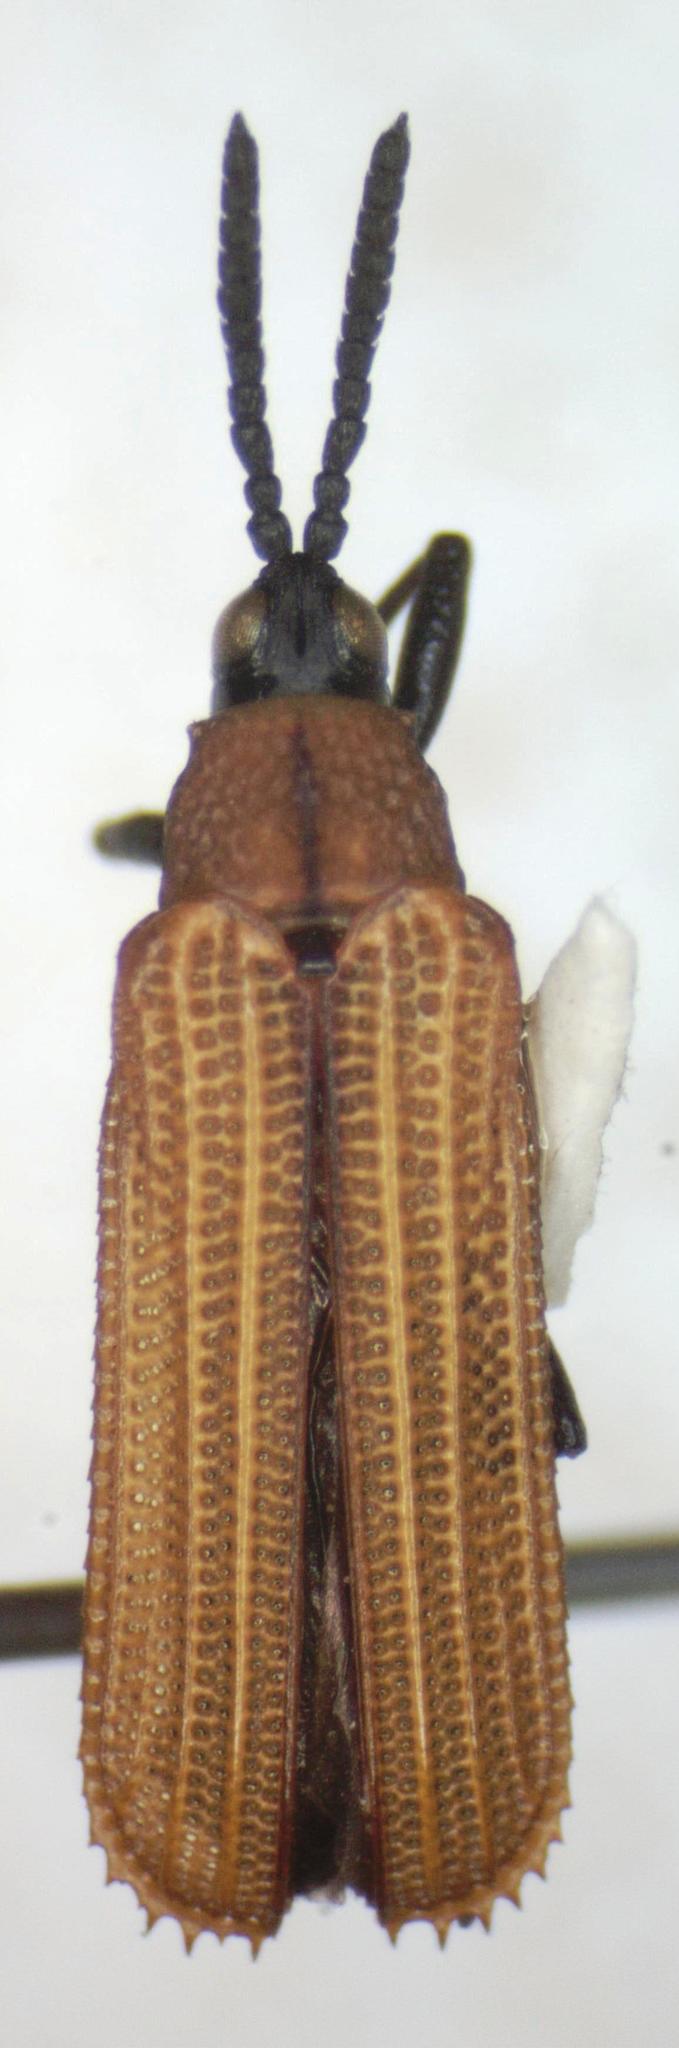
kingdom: Animalia
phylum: Arthropoda
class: Insecta
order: Coleoptera
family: Chrysomelidae
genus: Xenochalepus
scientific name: Xenochalepus chromaticus
